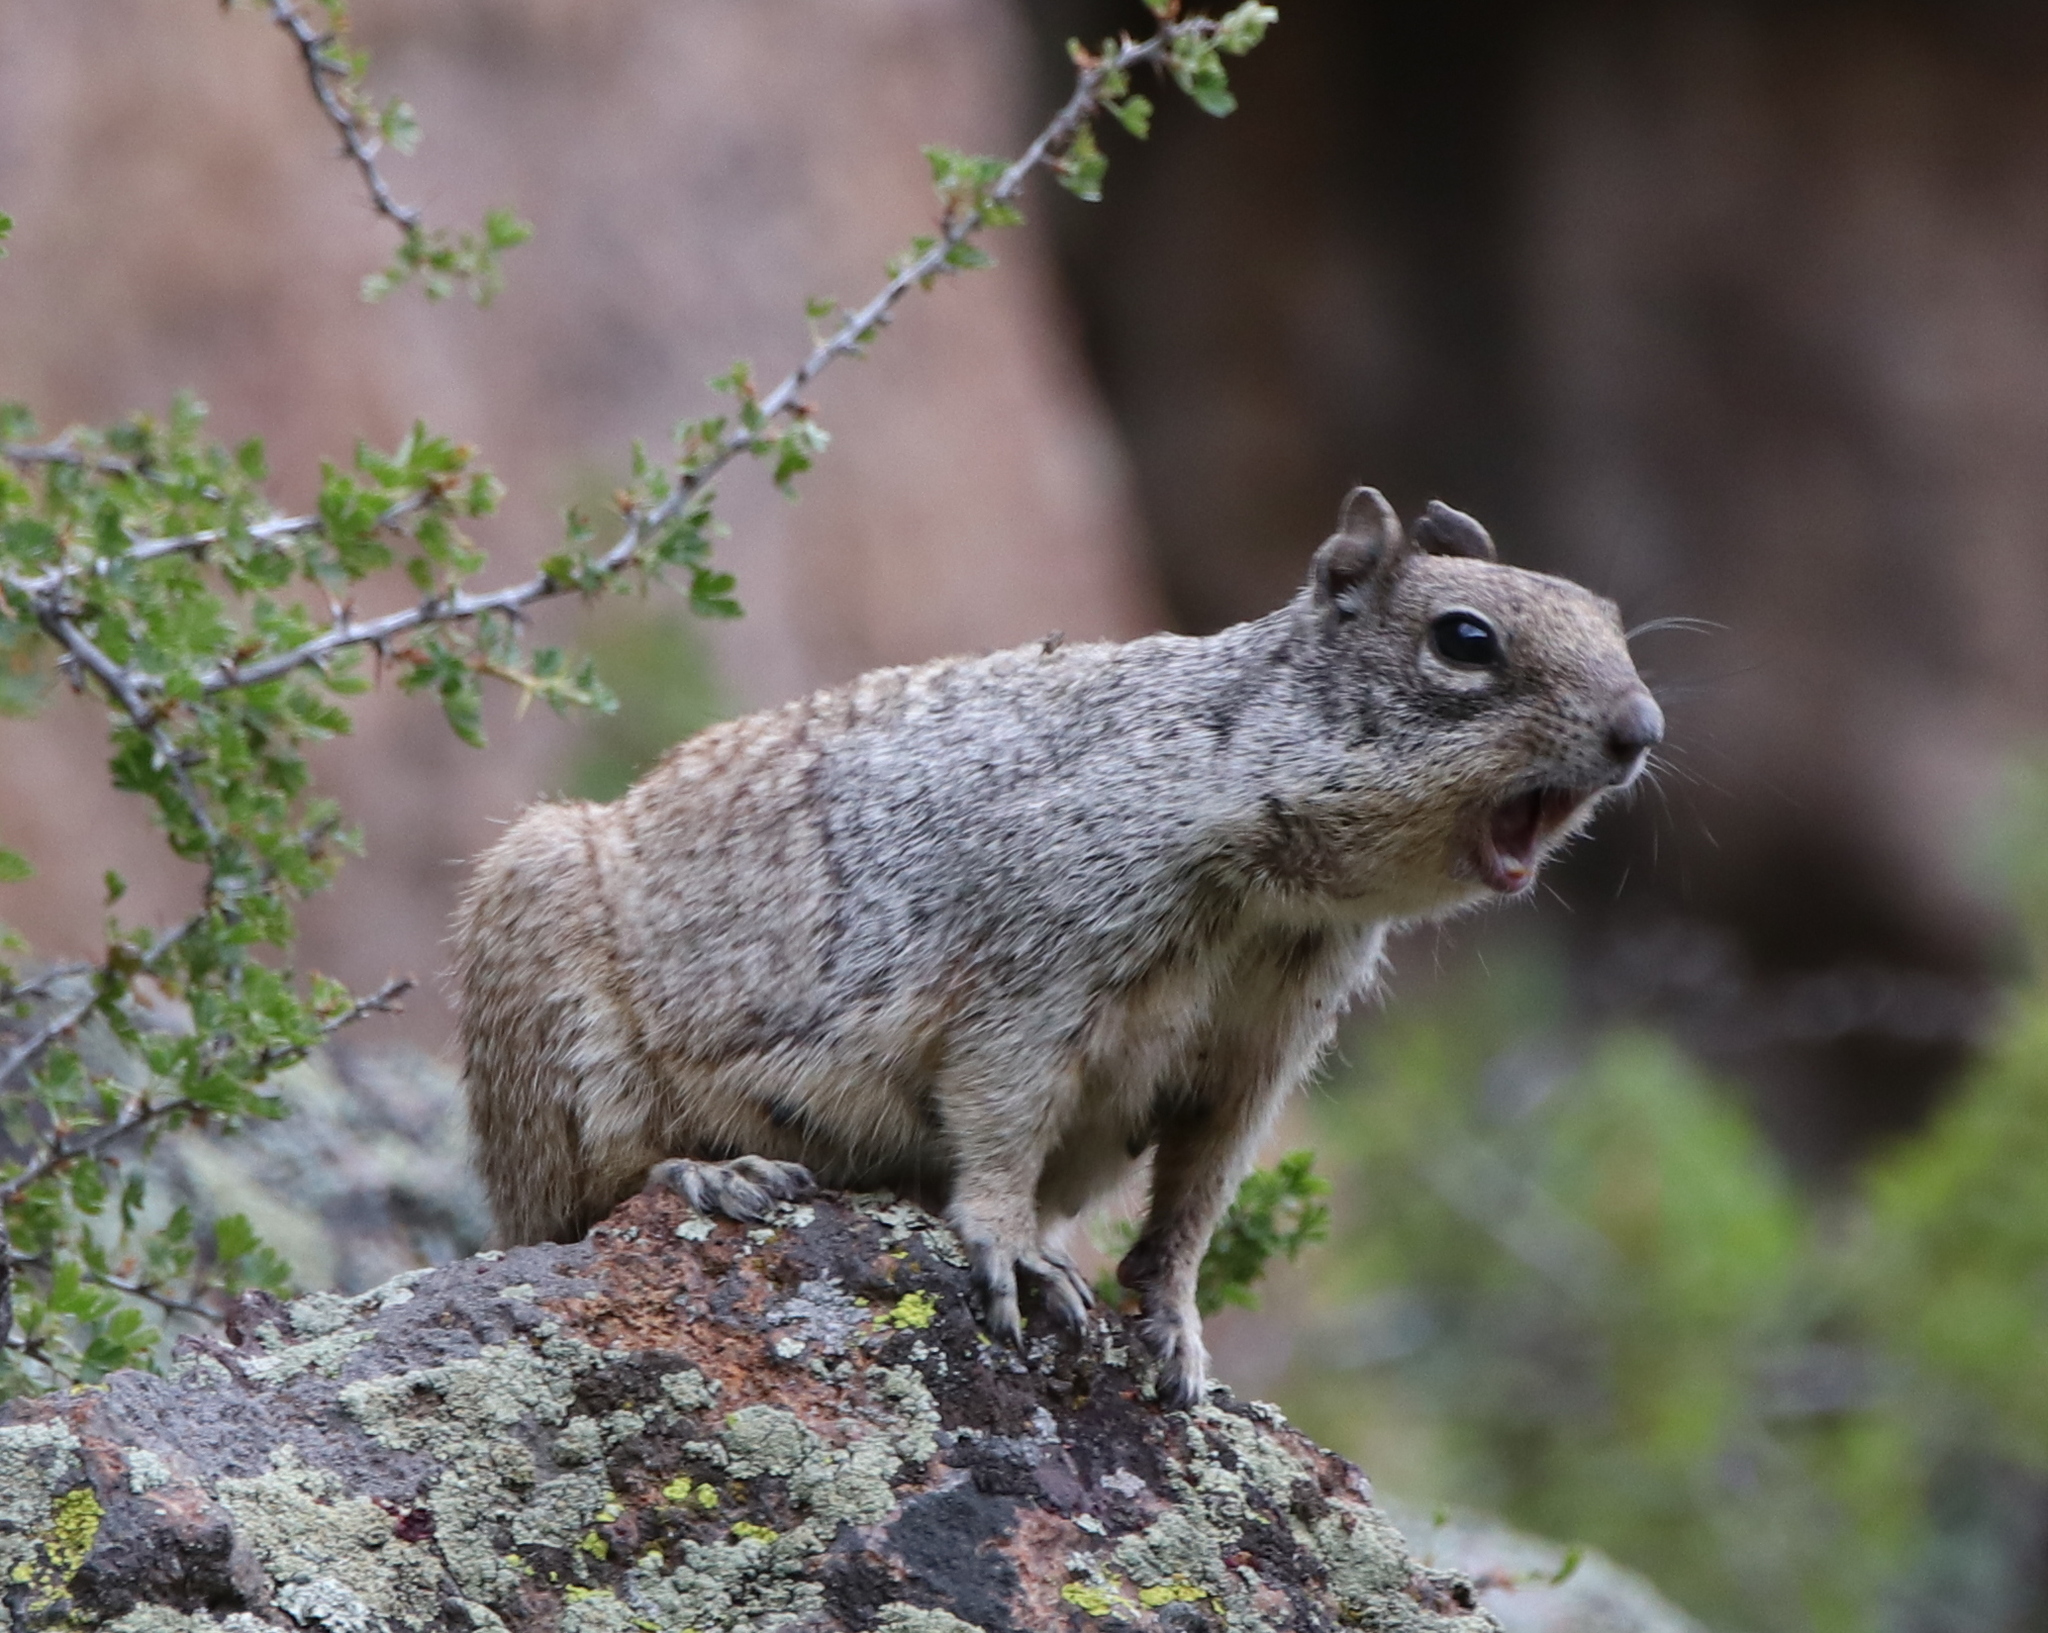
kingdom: Animalia
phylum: Chordata
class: Mammalia
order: Rodentia
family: Sciuridae
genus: Otospermophilus
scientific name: Otospermophilus variegatus
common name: Rock squirrel
